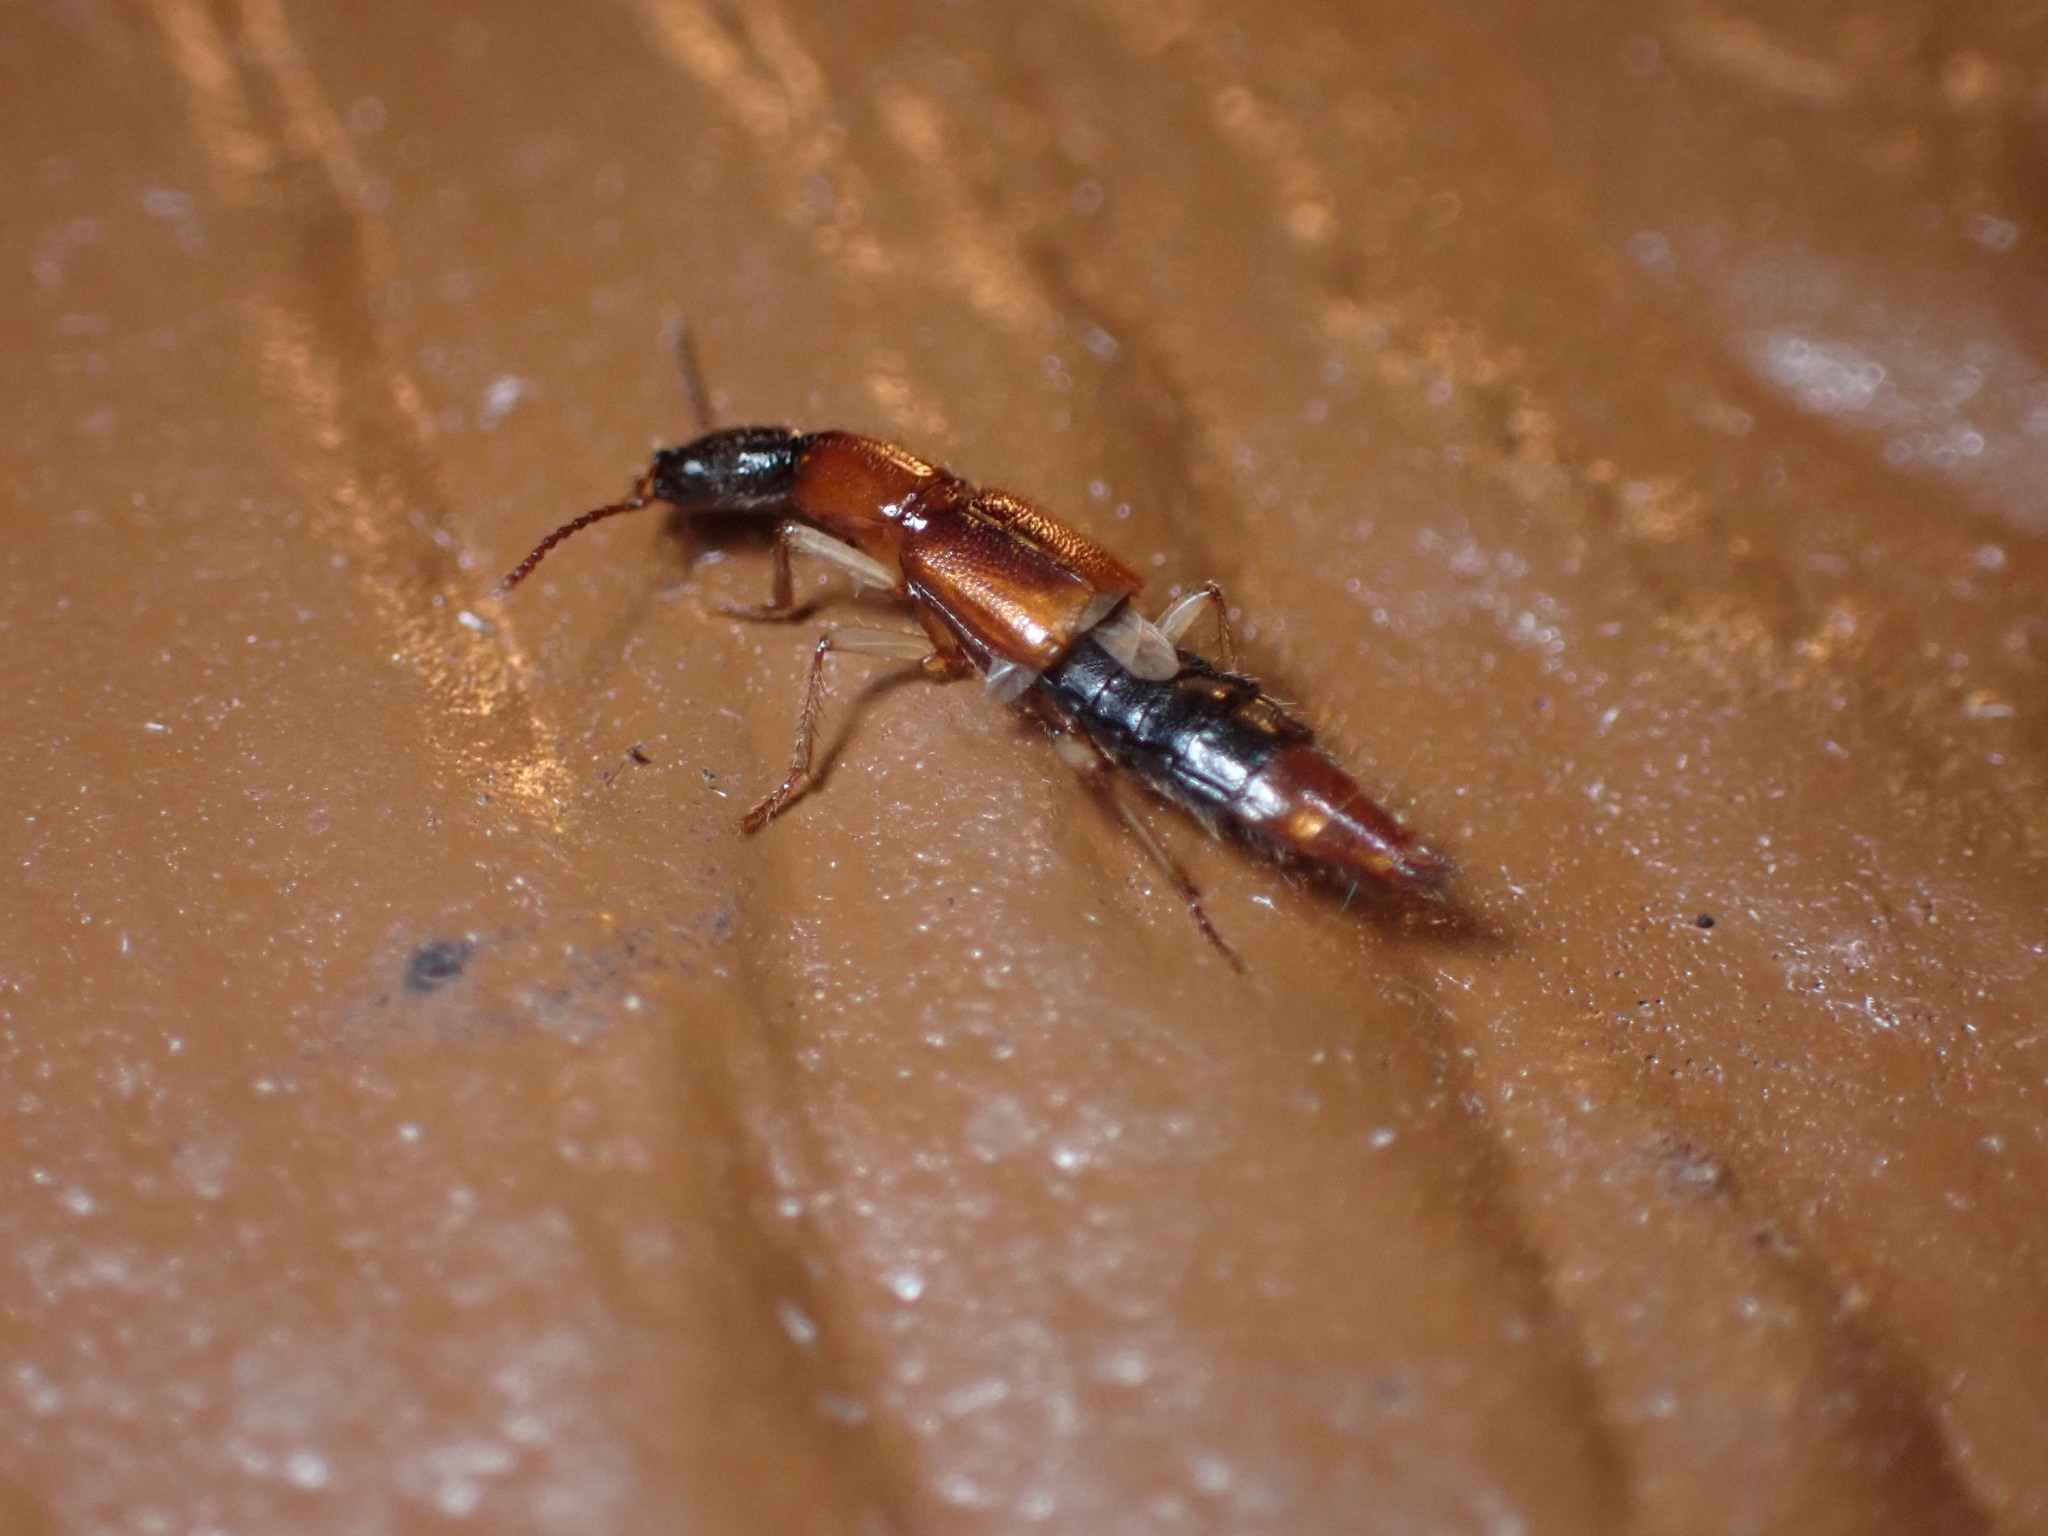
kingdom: Animalia
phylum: Arthropoda
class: Insecta
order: Coleoptera
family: Staphylinidae
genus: Homaeotarsus
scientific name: Homaeotarsus bicolor
